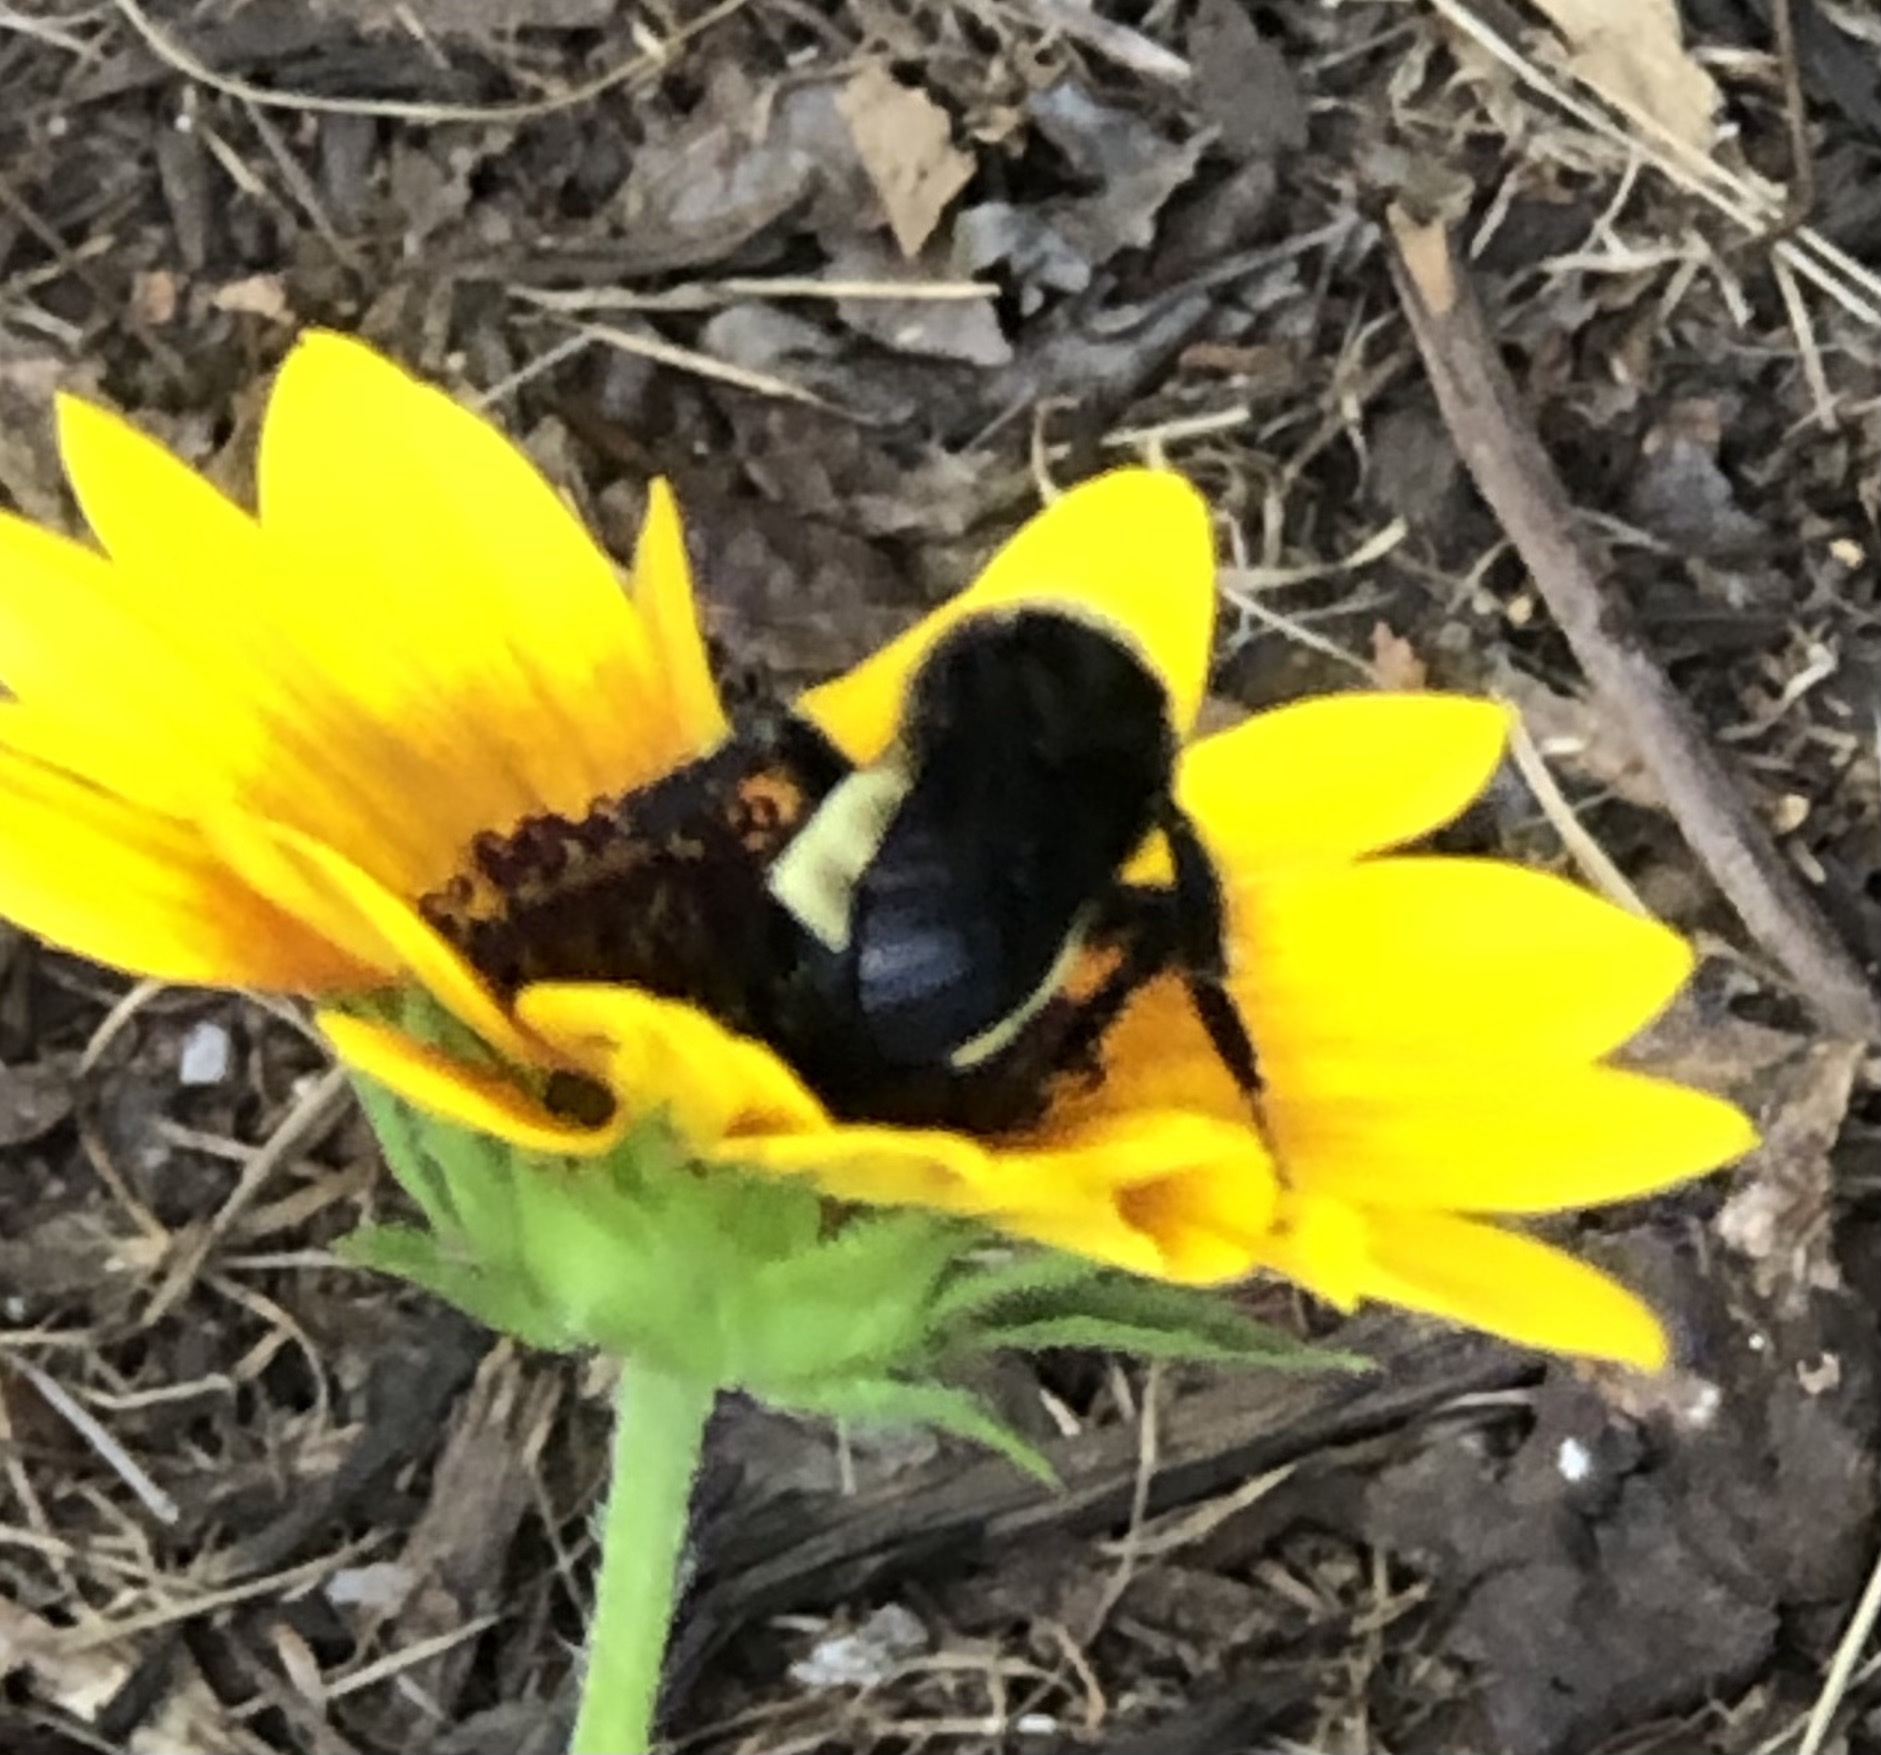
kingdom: Animalia
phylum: Arthropoda
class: Insecta
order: Hymenoptera
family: Apidae
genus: Bombus
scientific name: Bombus pensylvanicus
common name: Bumble bee
